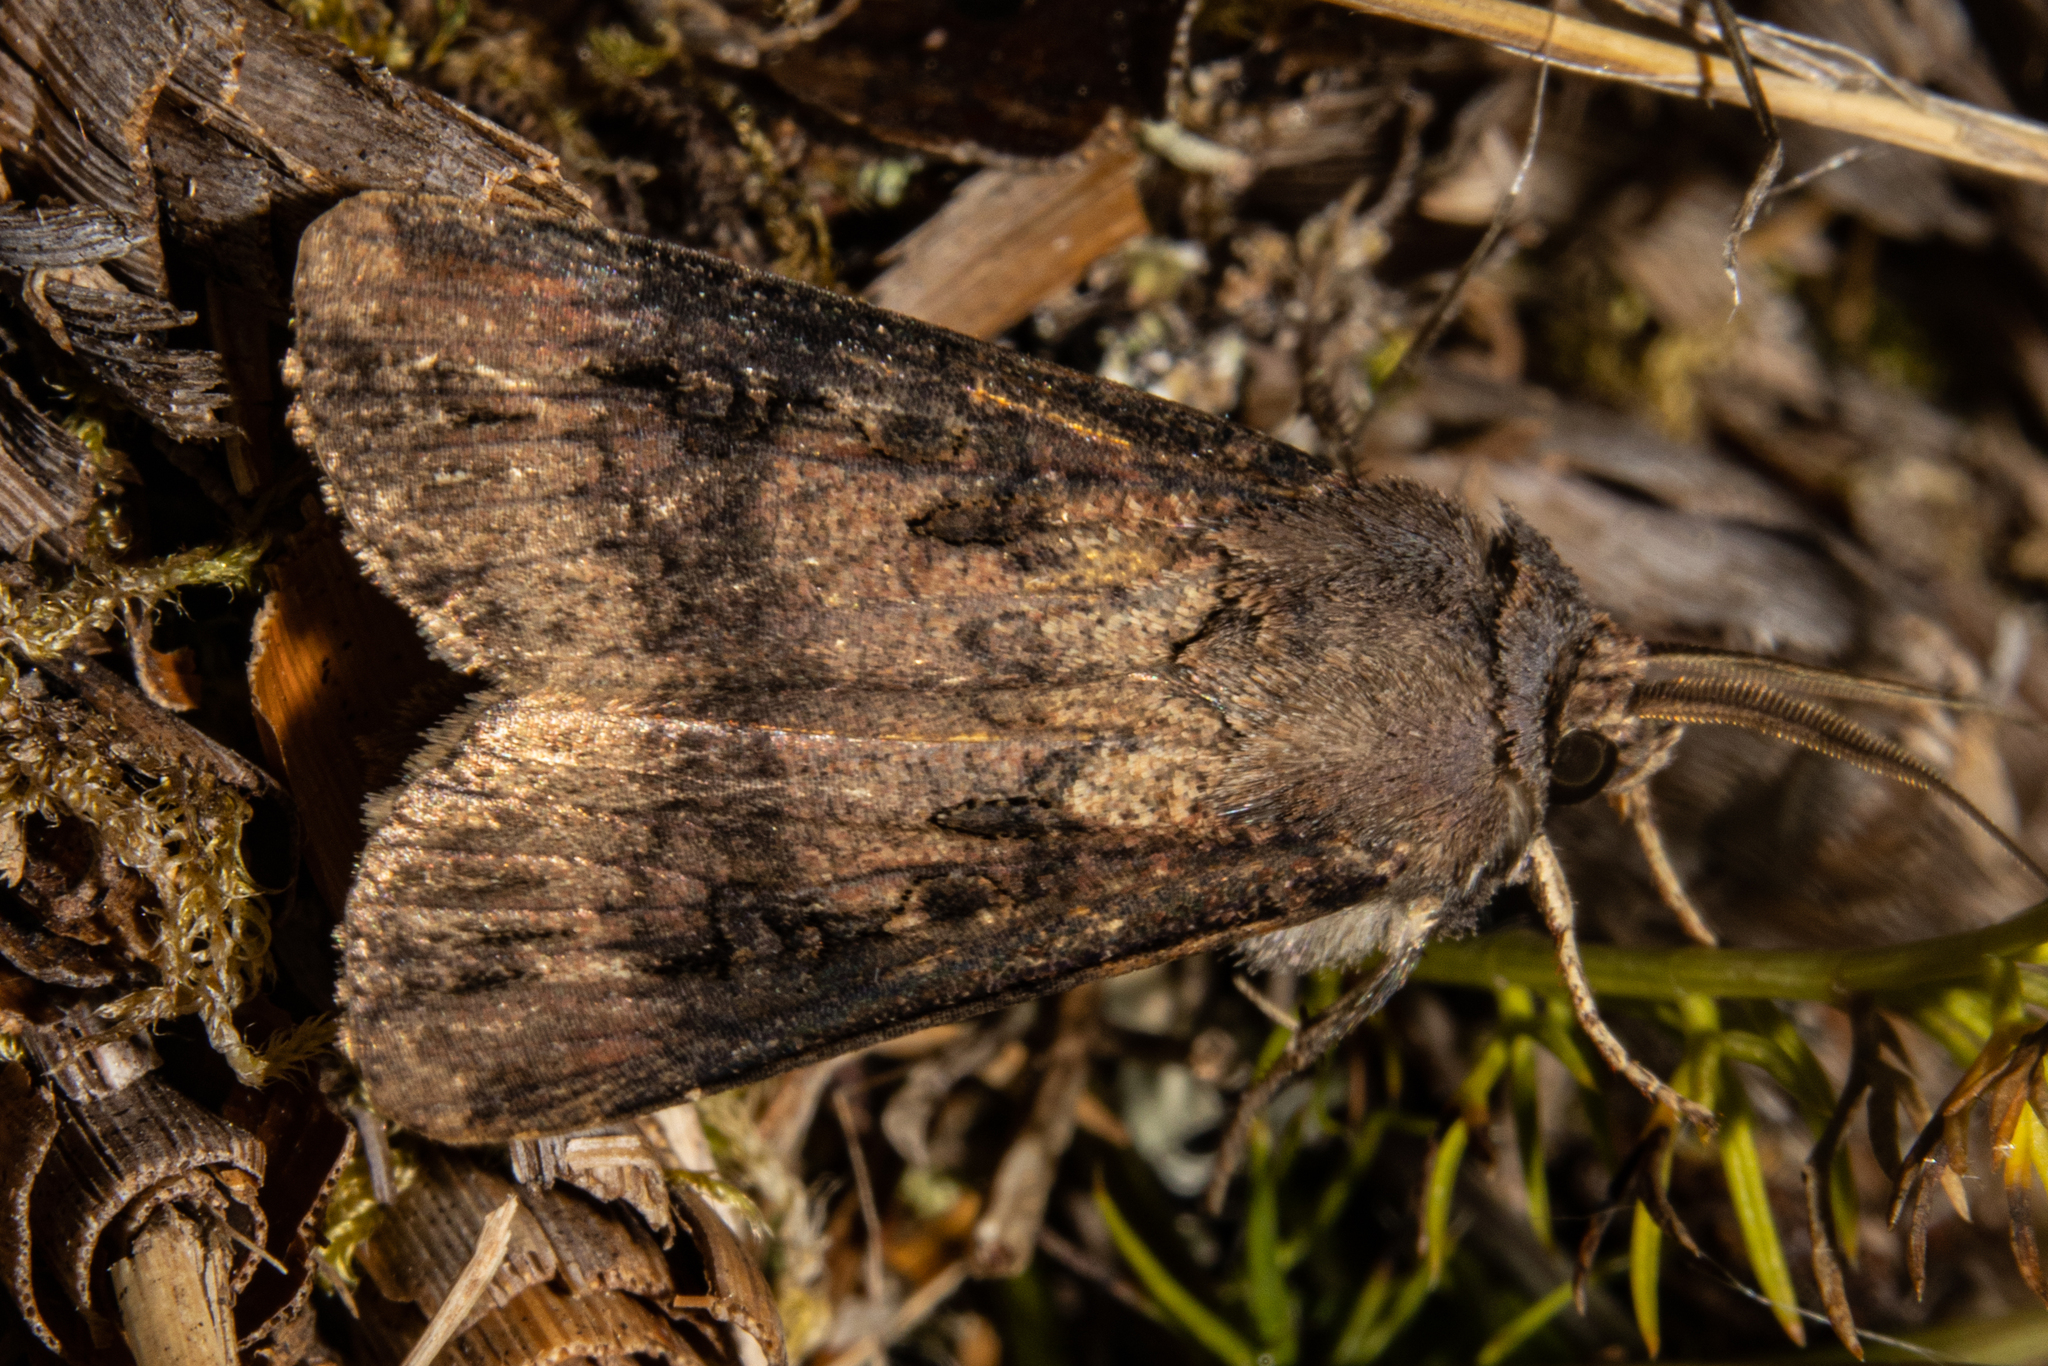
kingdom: Animalia
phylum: Arthropoda
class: Insecta
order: Lepidoptera
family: Noctuidae
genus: Agrotis
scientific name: Agrotis ipsilon
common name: Dark sword-grass
